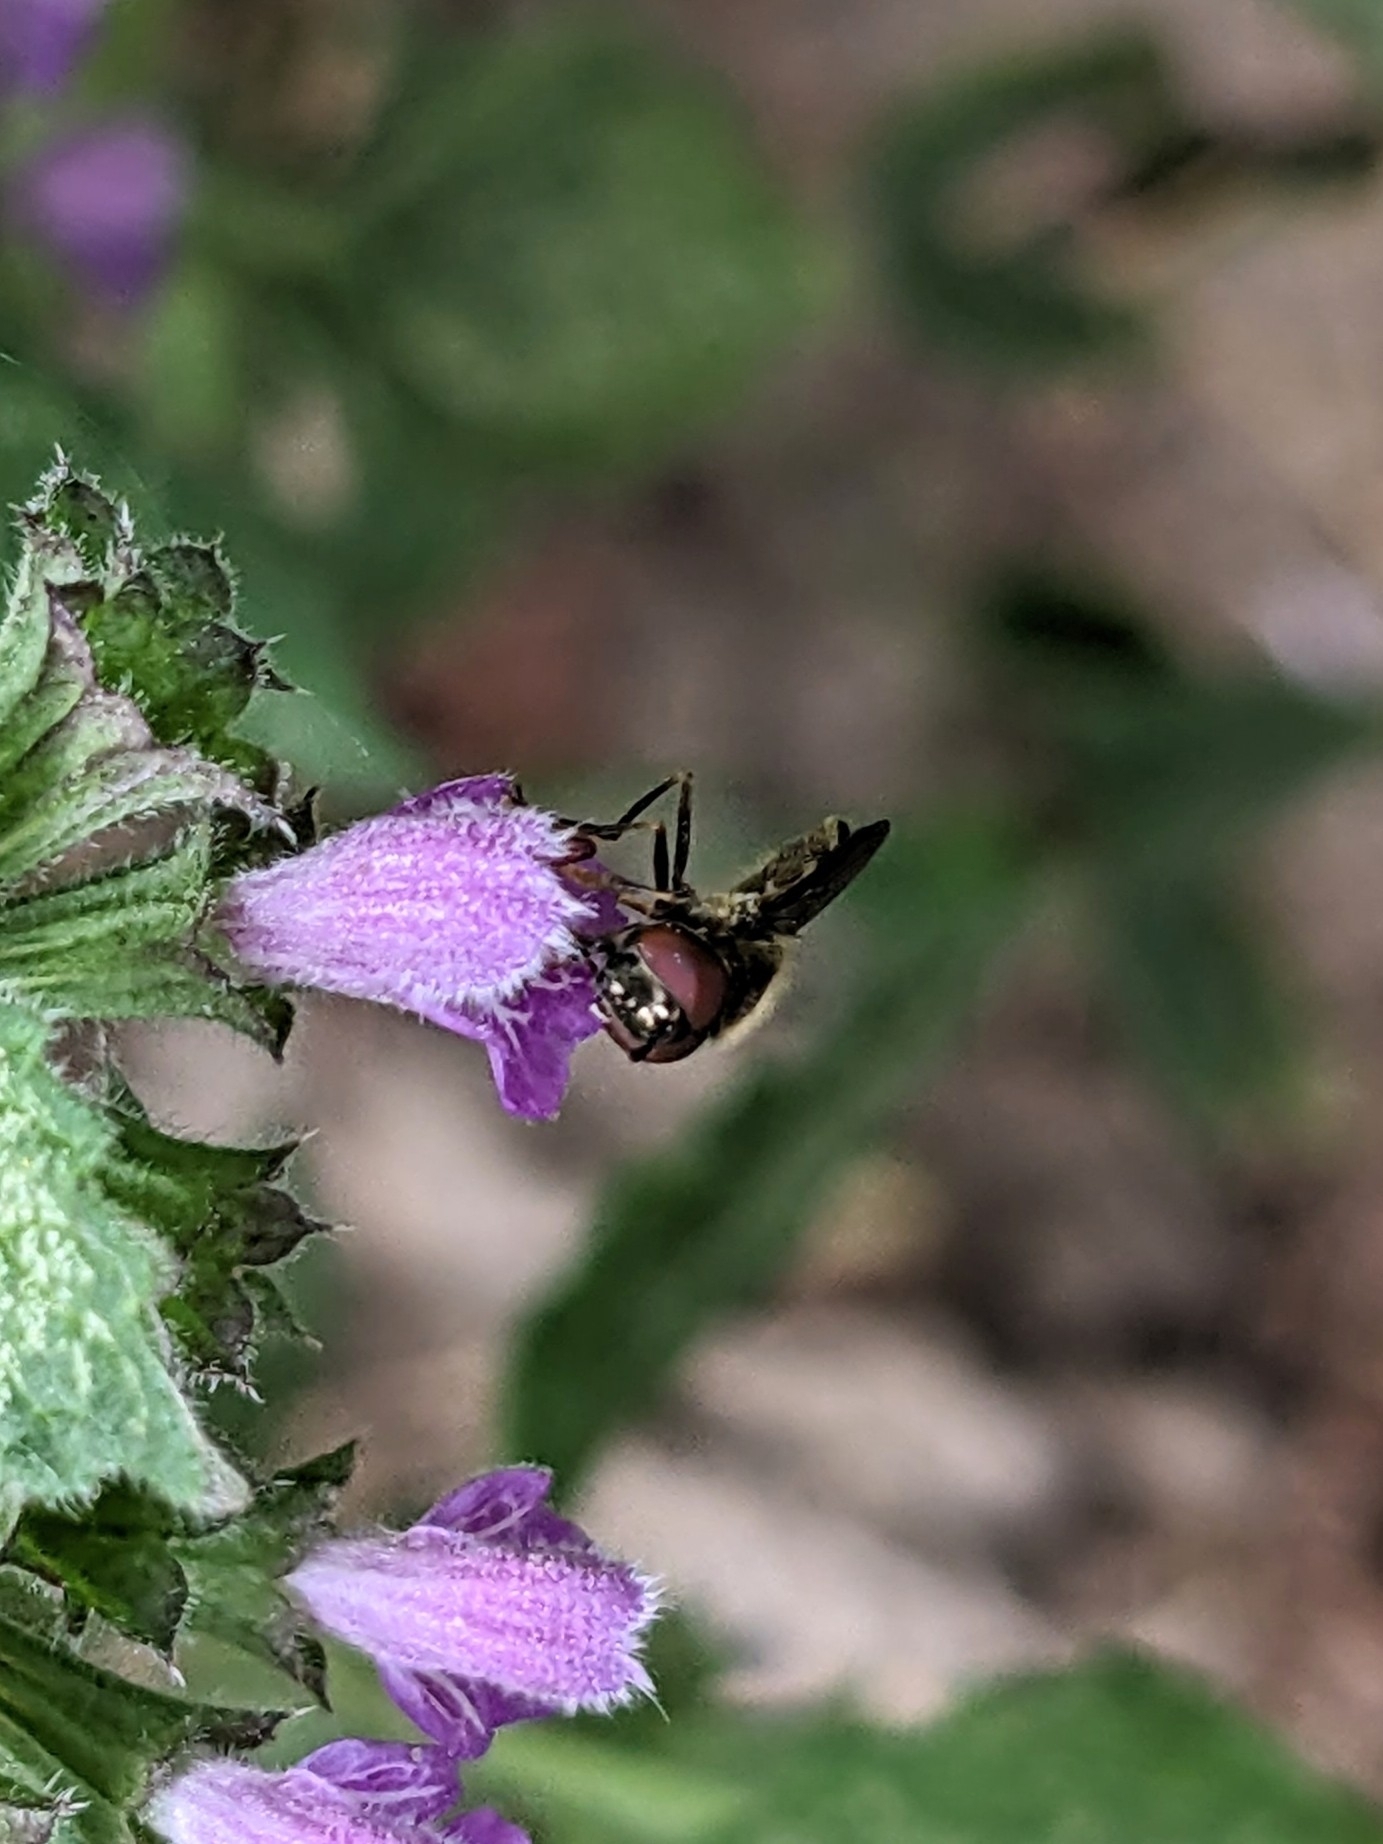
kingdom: Animalia
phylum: Arthropoda
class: Insecta
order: Diptera
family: Syrphidae
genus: Platycheirus
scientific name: Platycheirus albimanus
